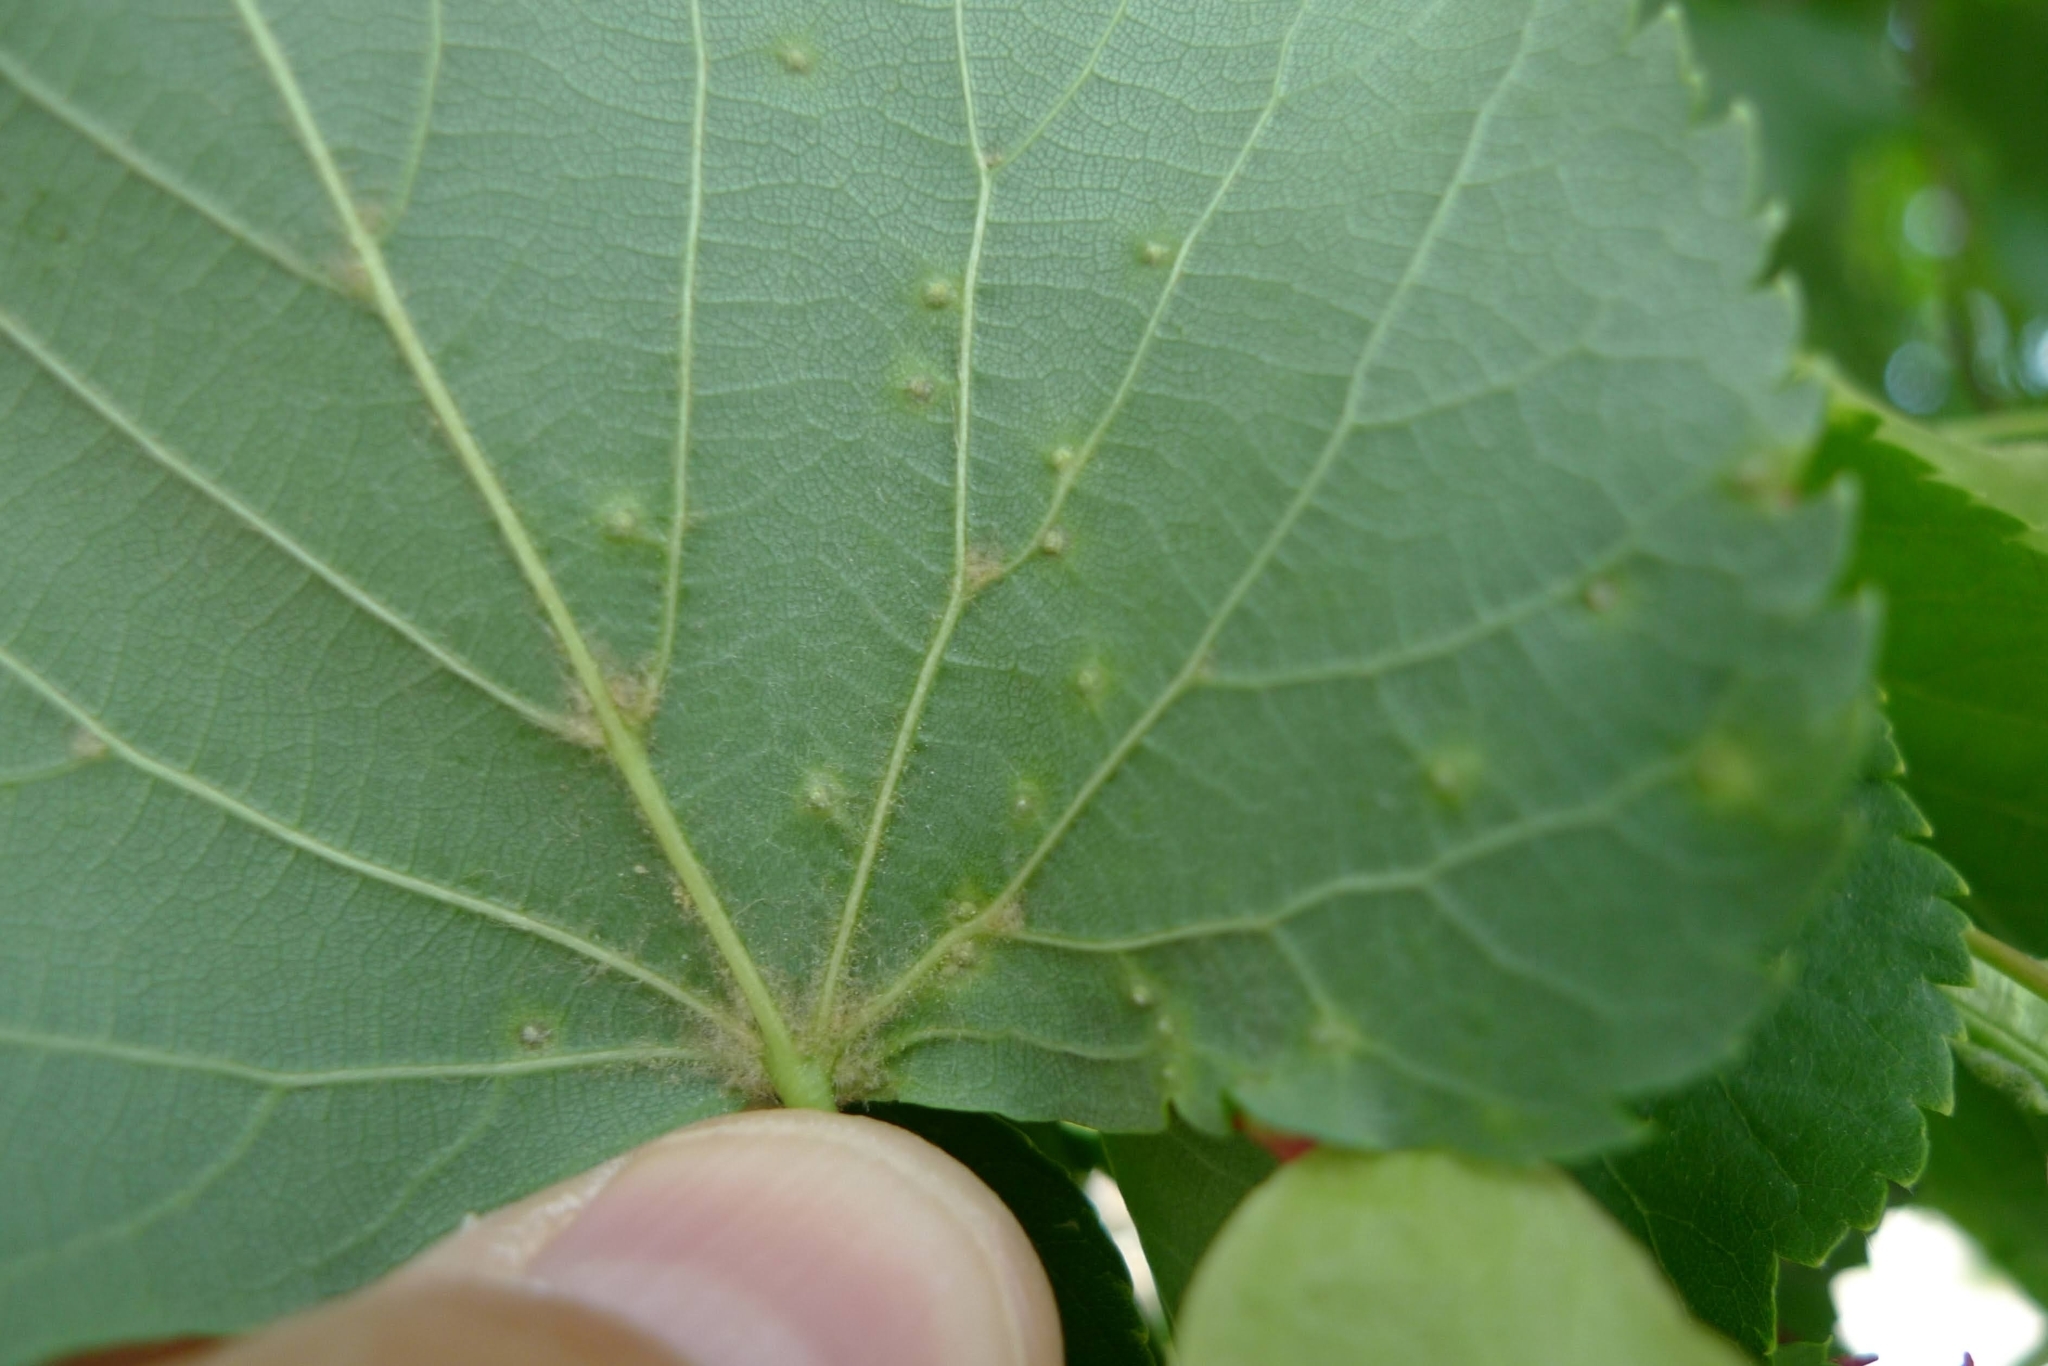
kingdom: Animalia
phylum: Arthropoda
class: Arachnida
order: Trombidiformes
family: Eriophyidae
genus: Eriophyes
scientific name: Eriophyes tiliae
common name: Red nail gall mite
